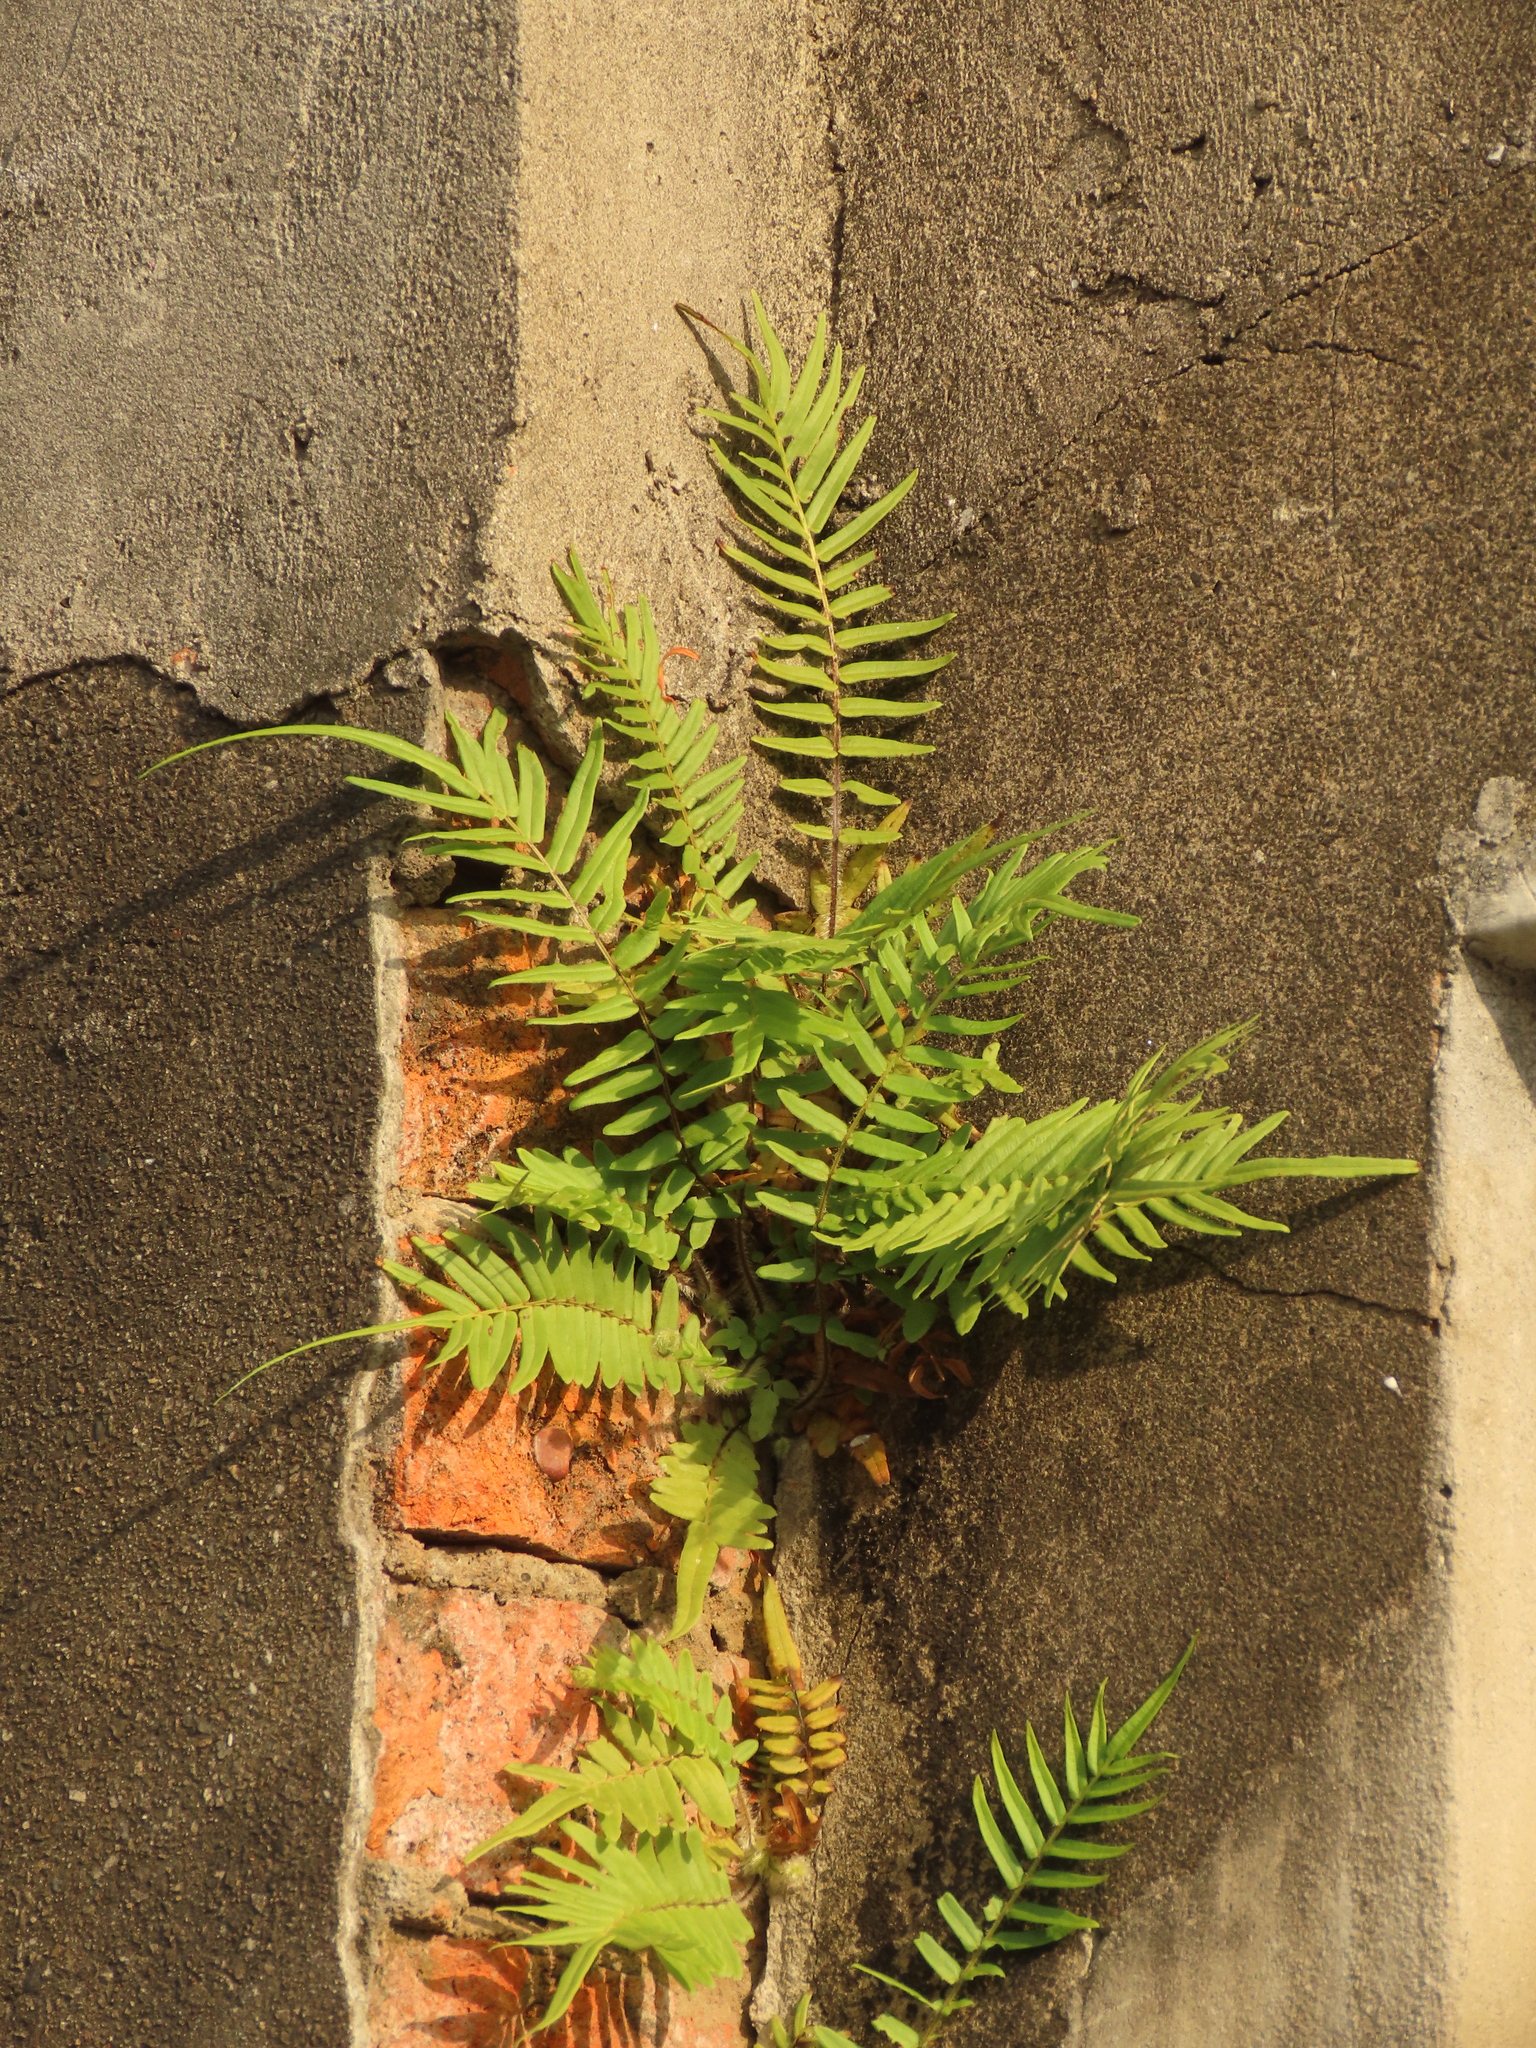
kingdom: Plantae
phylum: Tracheophyta
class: Polypodiopsida
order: Polypodiales
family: Pteridaceae
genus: Pteris
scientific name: Pteris vittata
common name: Ladder brake
